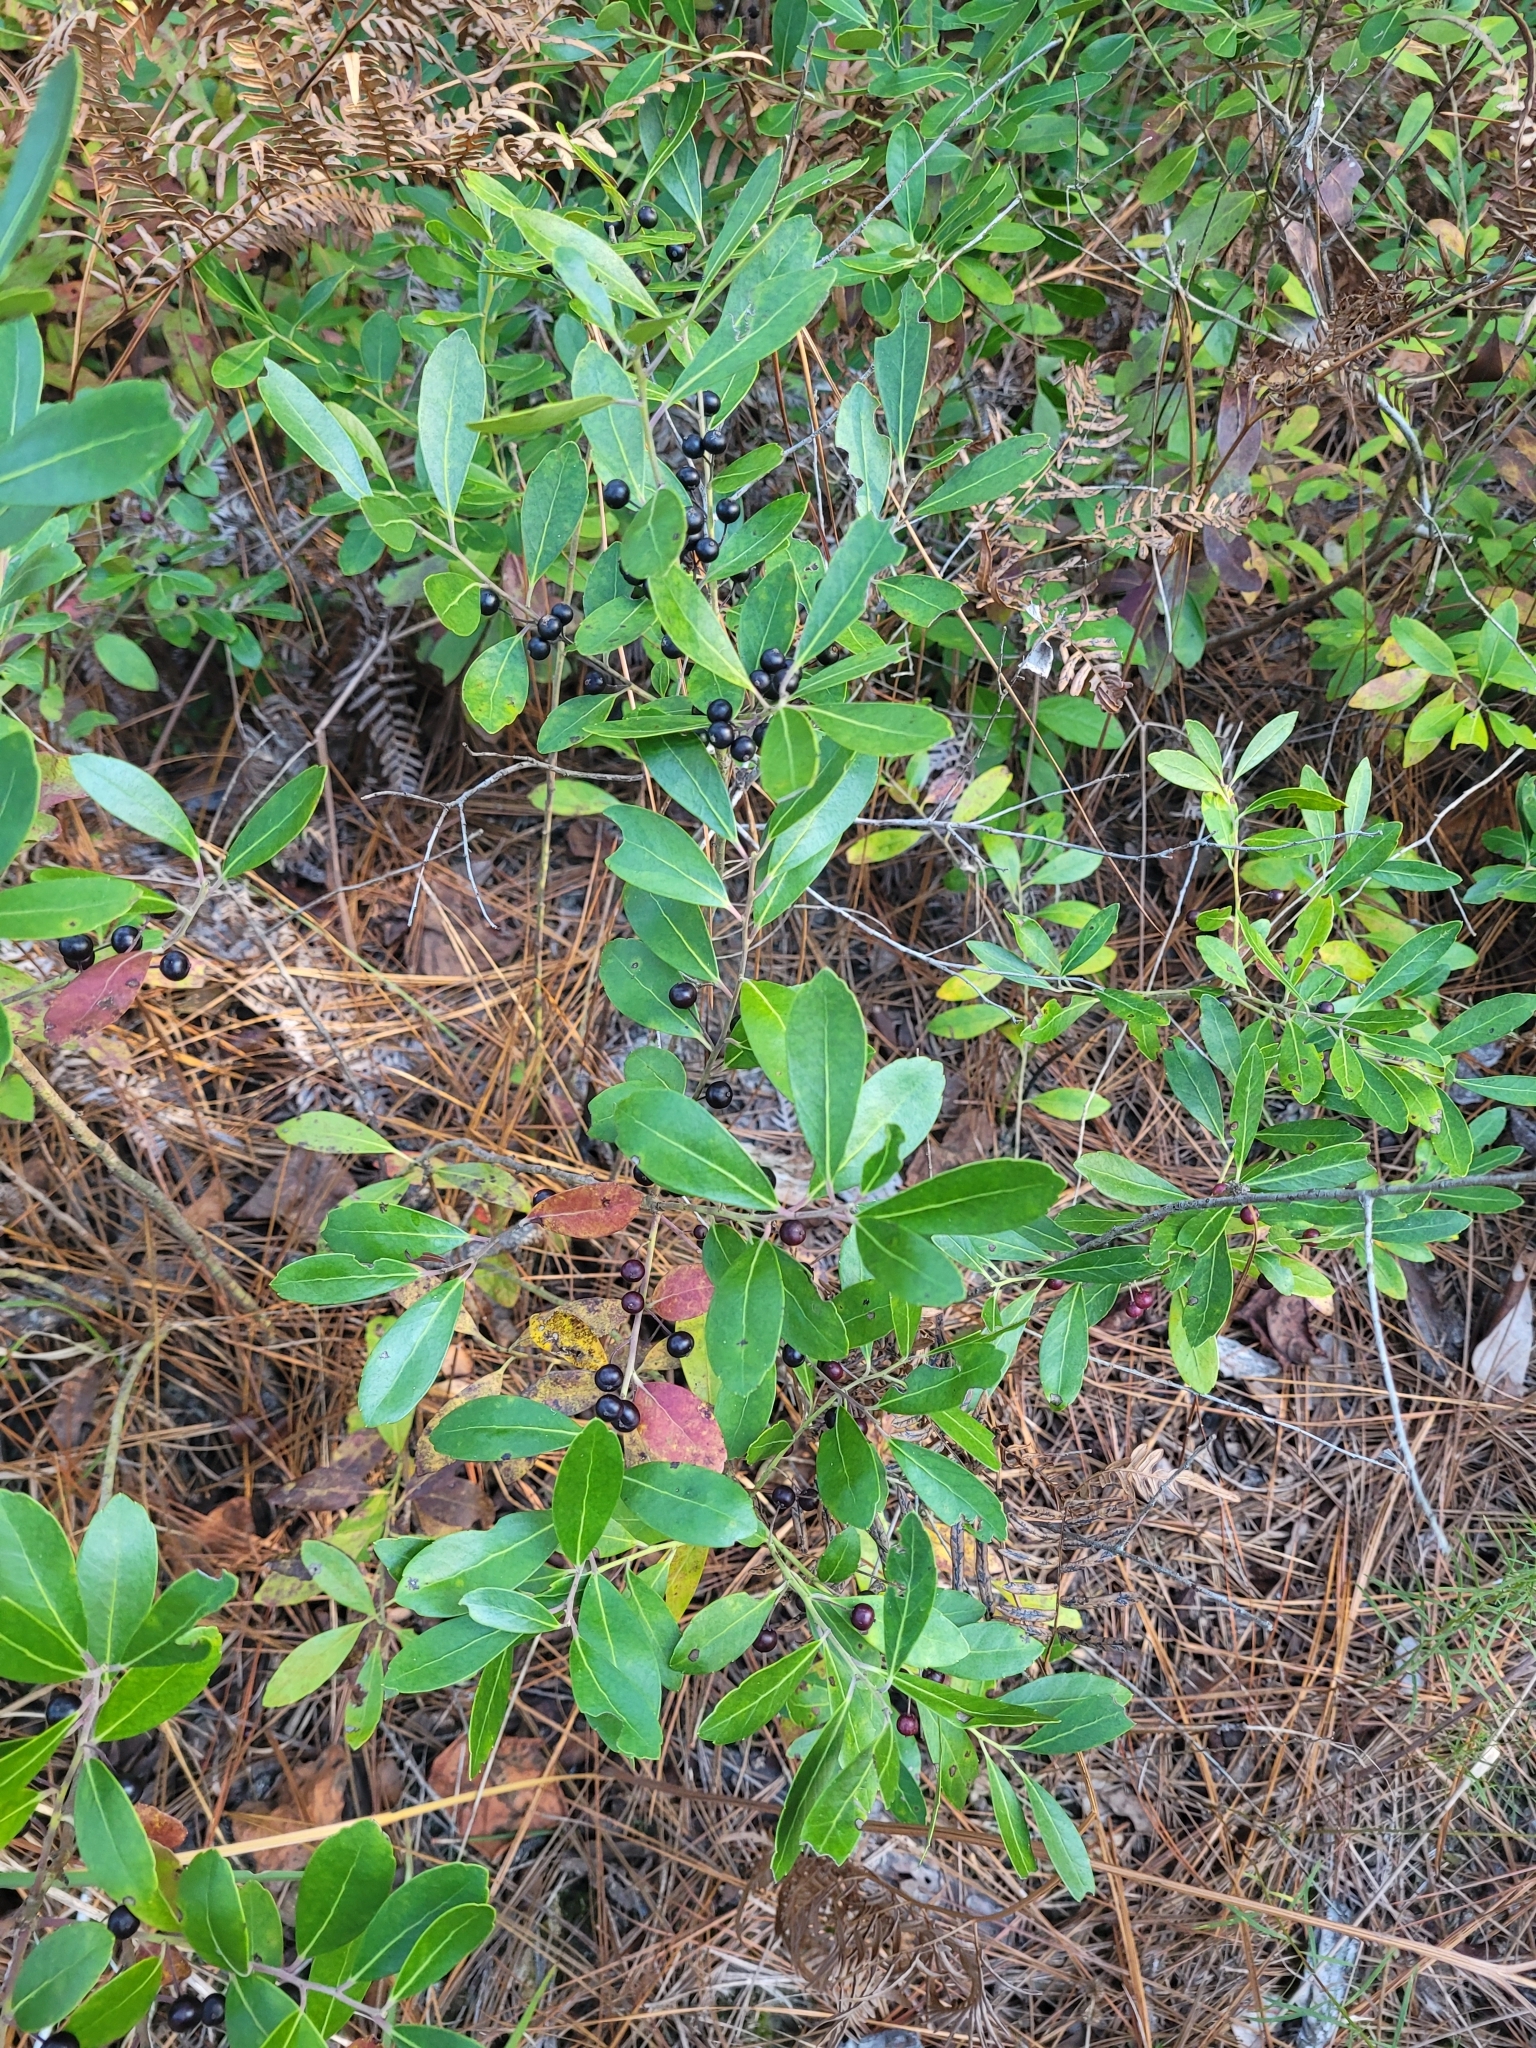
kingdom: Plantae
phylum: Tracheophyta
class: Magnoliopsida
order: Aquifoliales
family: Aquifoliaceae
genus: Ilex
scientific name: Ilex glabra
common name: Bitter gallberry
